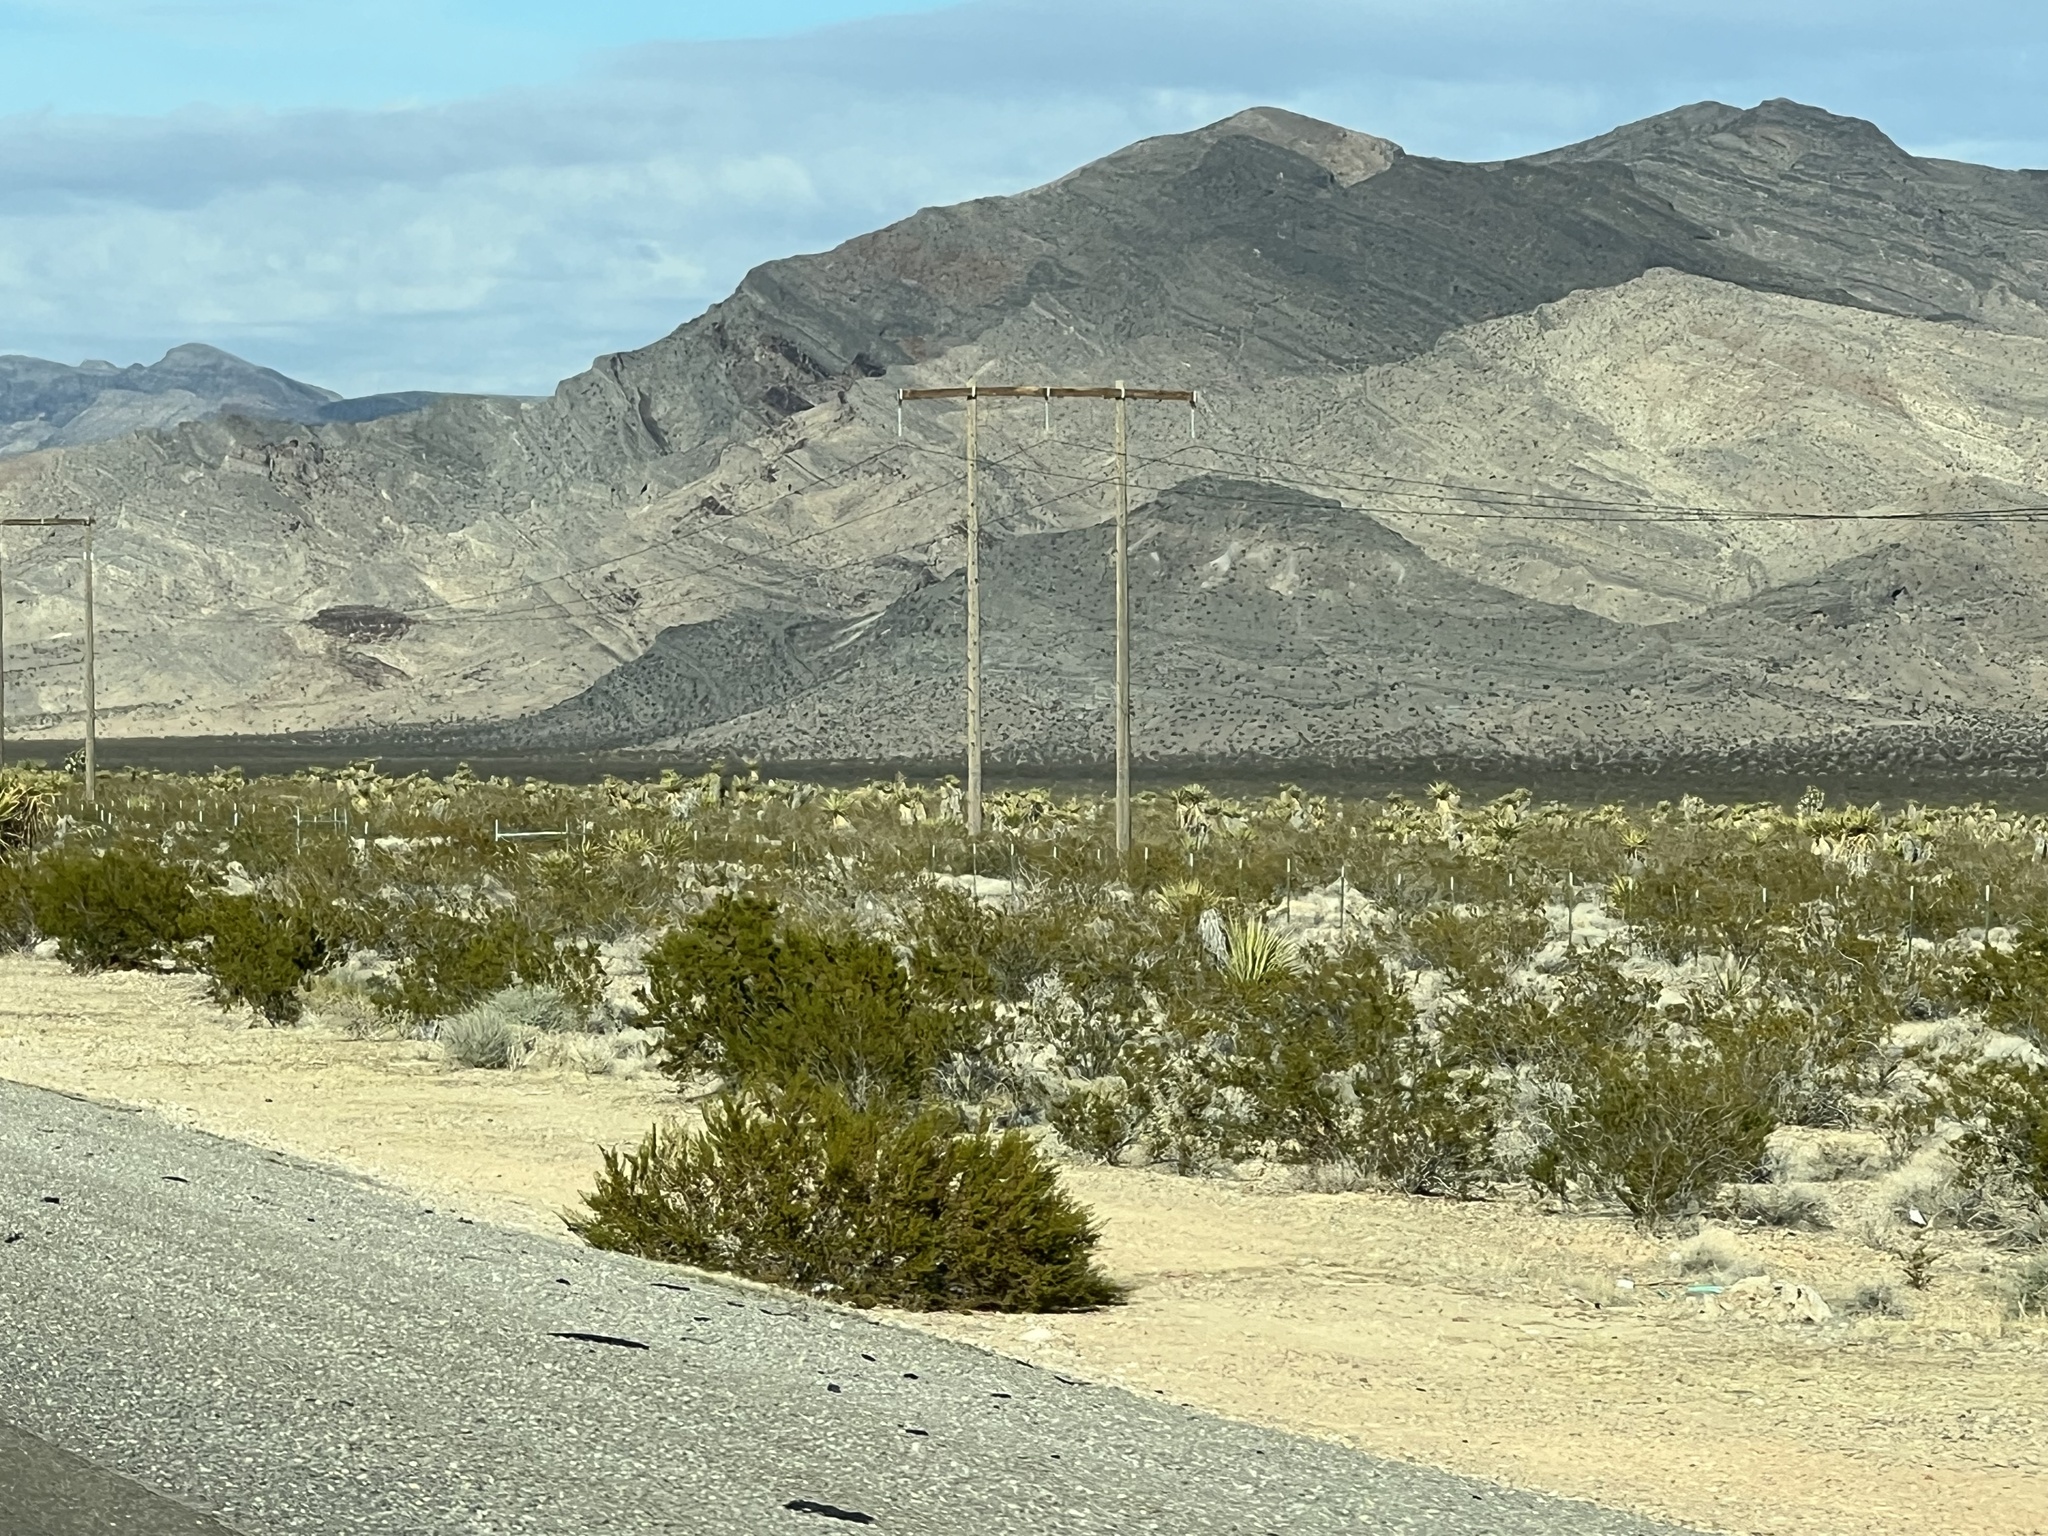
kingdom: Plantae
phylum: Tracheophyta
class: Magnoliopsida
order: Zygophyllales
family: Zygophyllaceae
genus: Larrea
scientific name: Larrea tridentata
